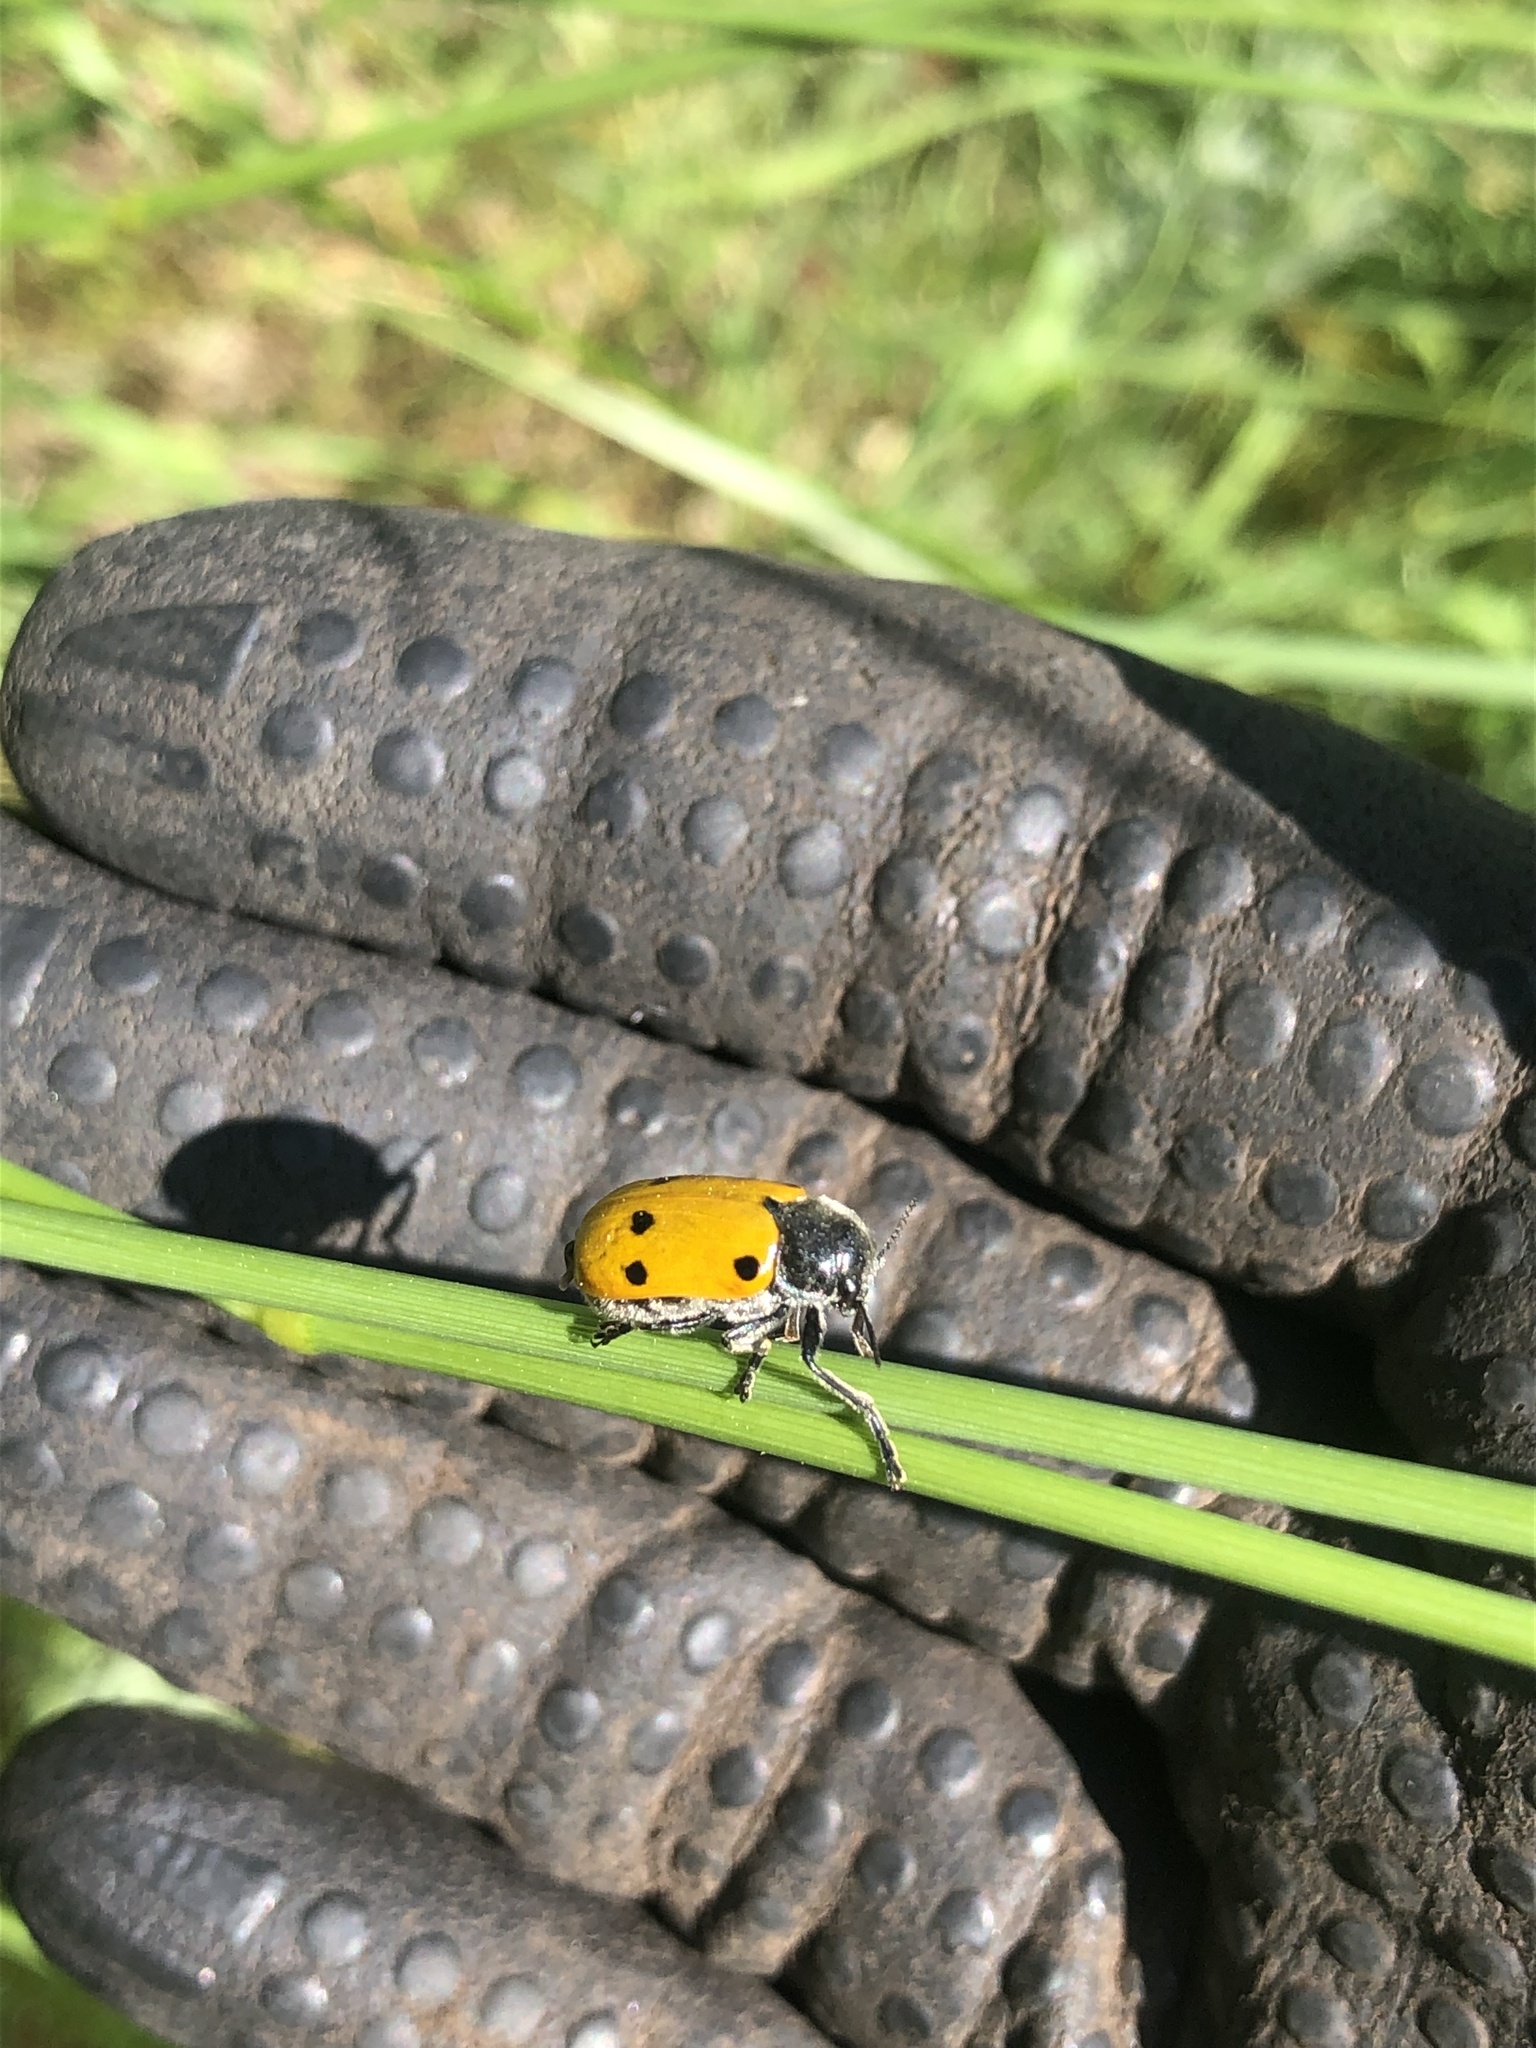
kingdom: Animalia
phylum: Arthropoda
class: Insecta
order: Coleoptera
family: Chrysomelidae
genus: Lachnaia
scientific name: Lachnaia sexpunctata
